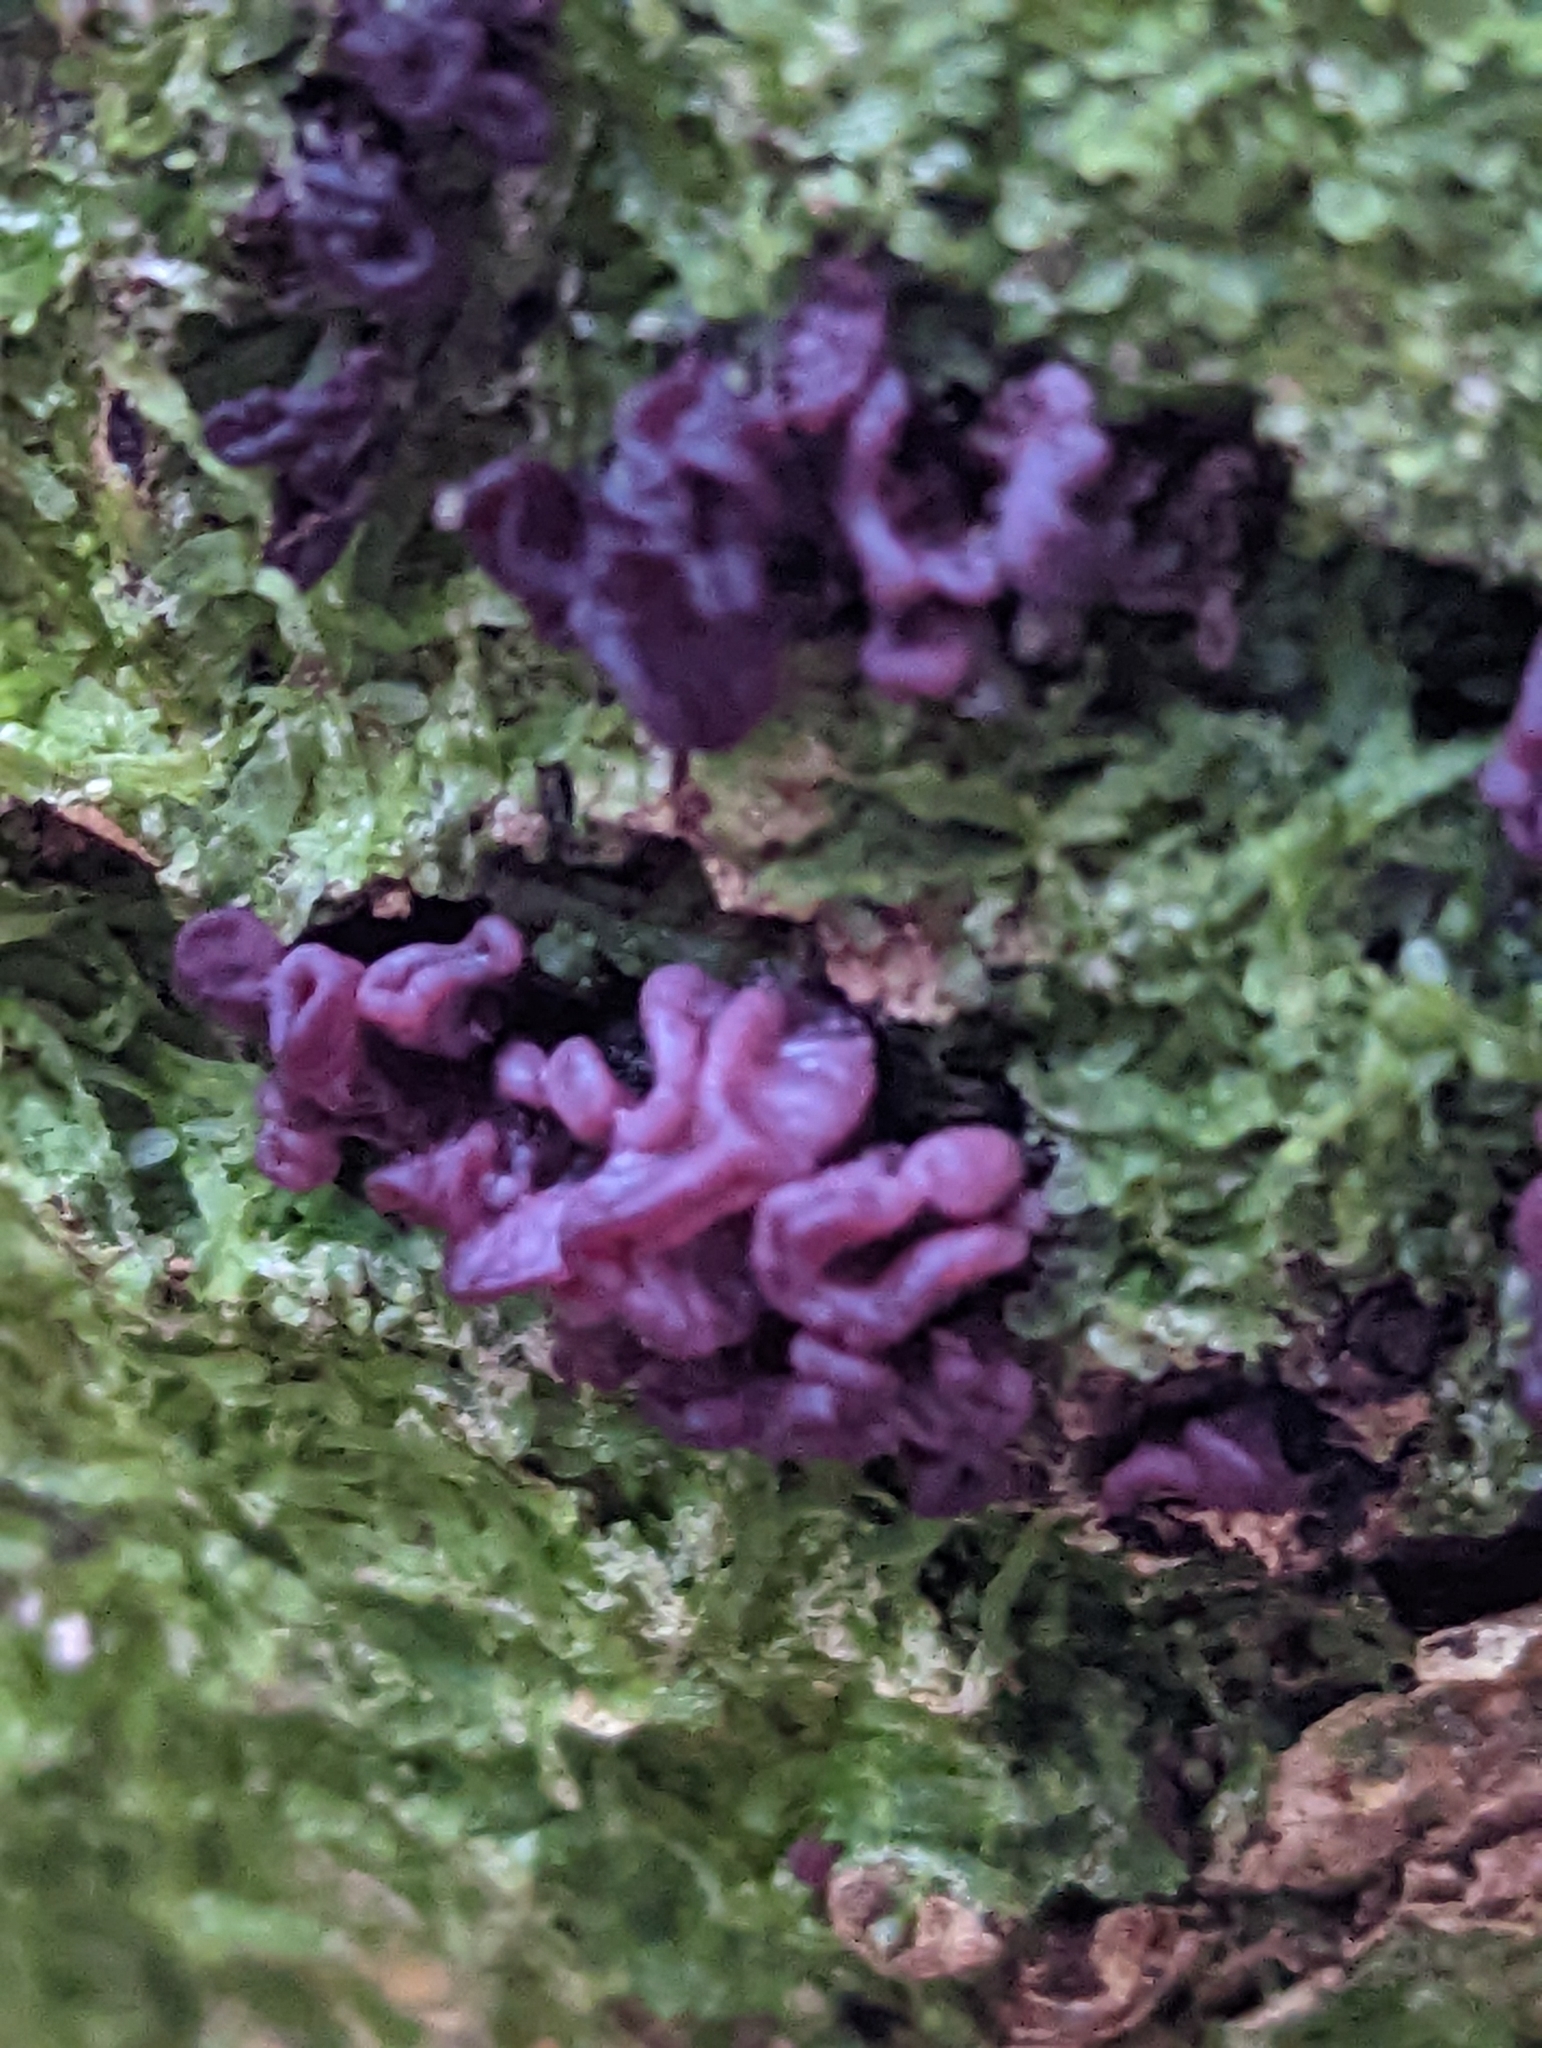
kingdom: Fungi
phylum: Ascomycota
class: Leotiomycetes
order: Helotiales
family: Gelatinodiscaceae
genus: Ascocoryne
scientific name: Ascocoryne sarcoides
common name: Purple jellydisc
